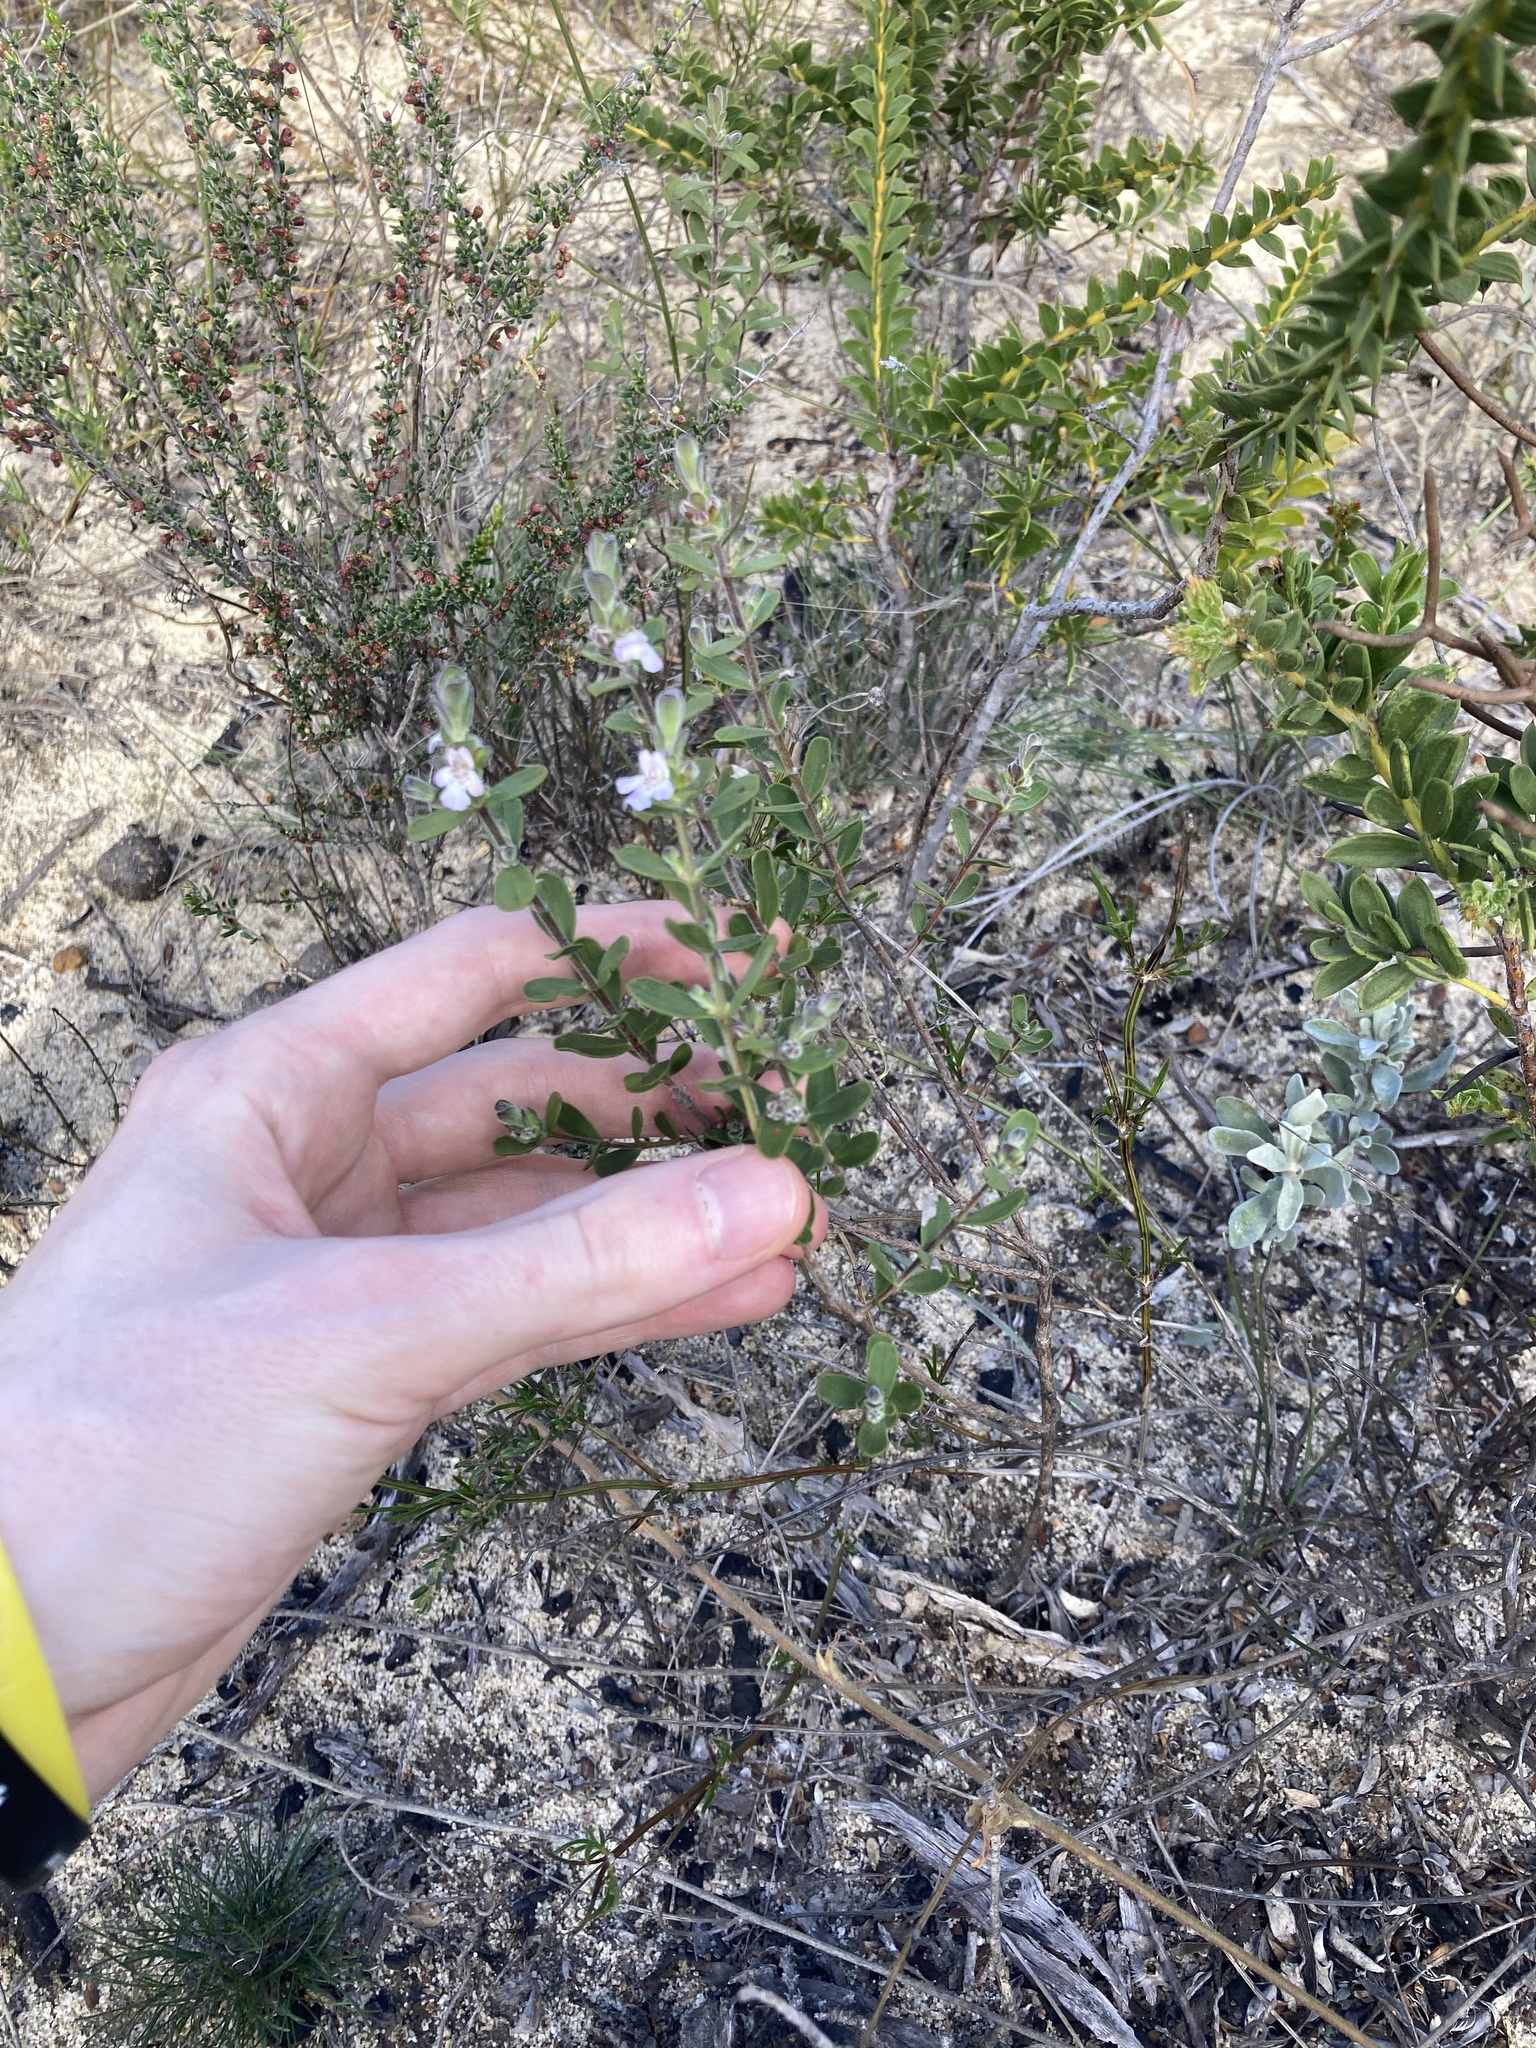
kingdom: Plantae
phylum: Tracheophyta
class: Magnoliopsida
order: Lamiales
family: Lamiaceae
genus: Hemigenia
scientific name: Hemigenia scabra
